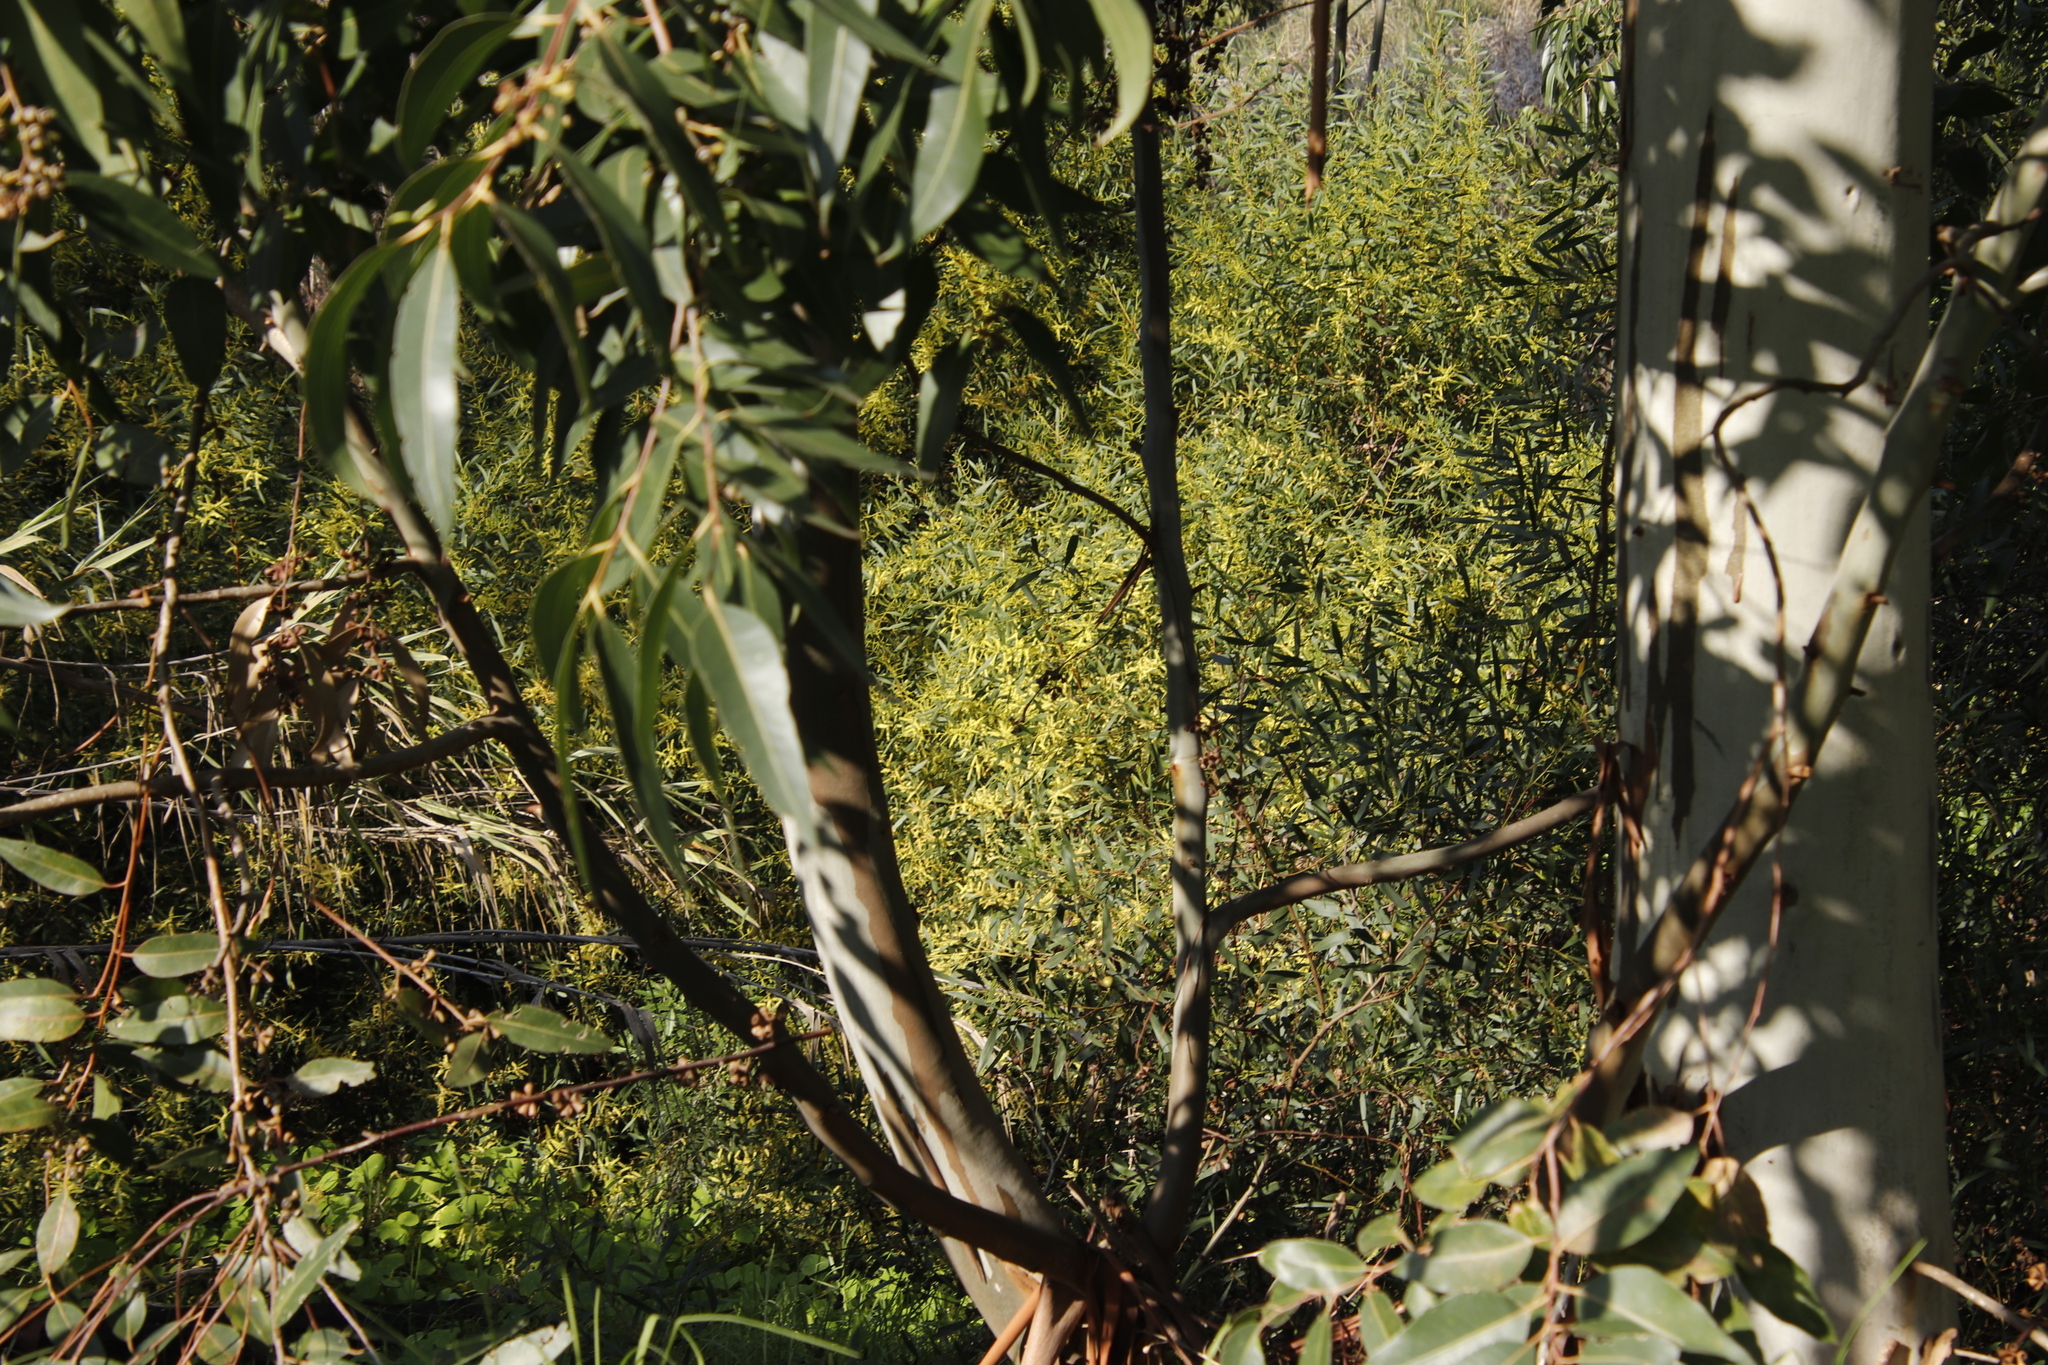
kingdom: Plantae
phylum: Tracheophyta
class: Magnoliopsida
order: Fabales
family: Fabaceae
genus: Acacia
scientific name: Acacia longifolia
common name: Sydney golden wattle
